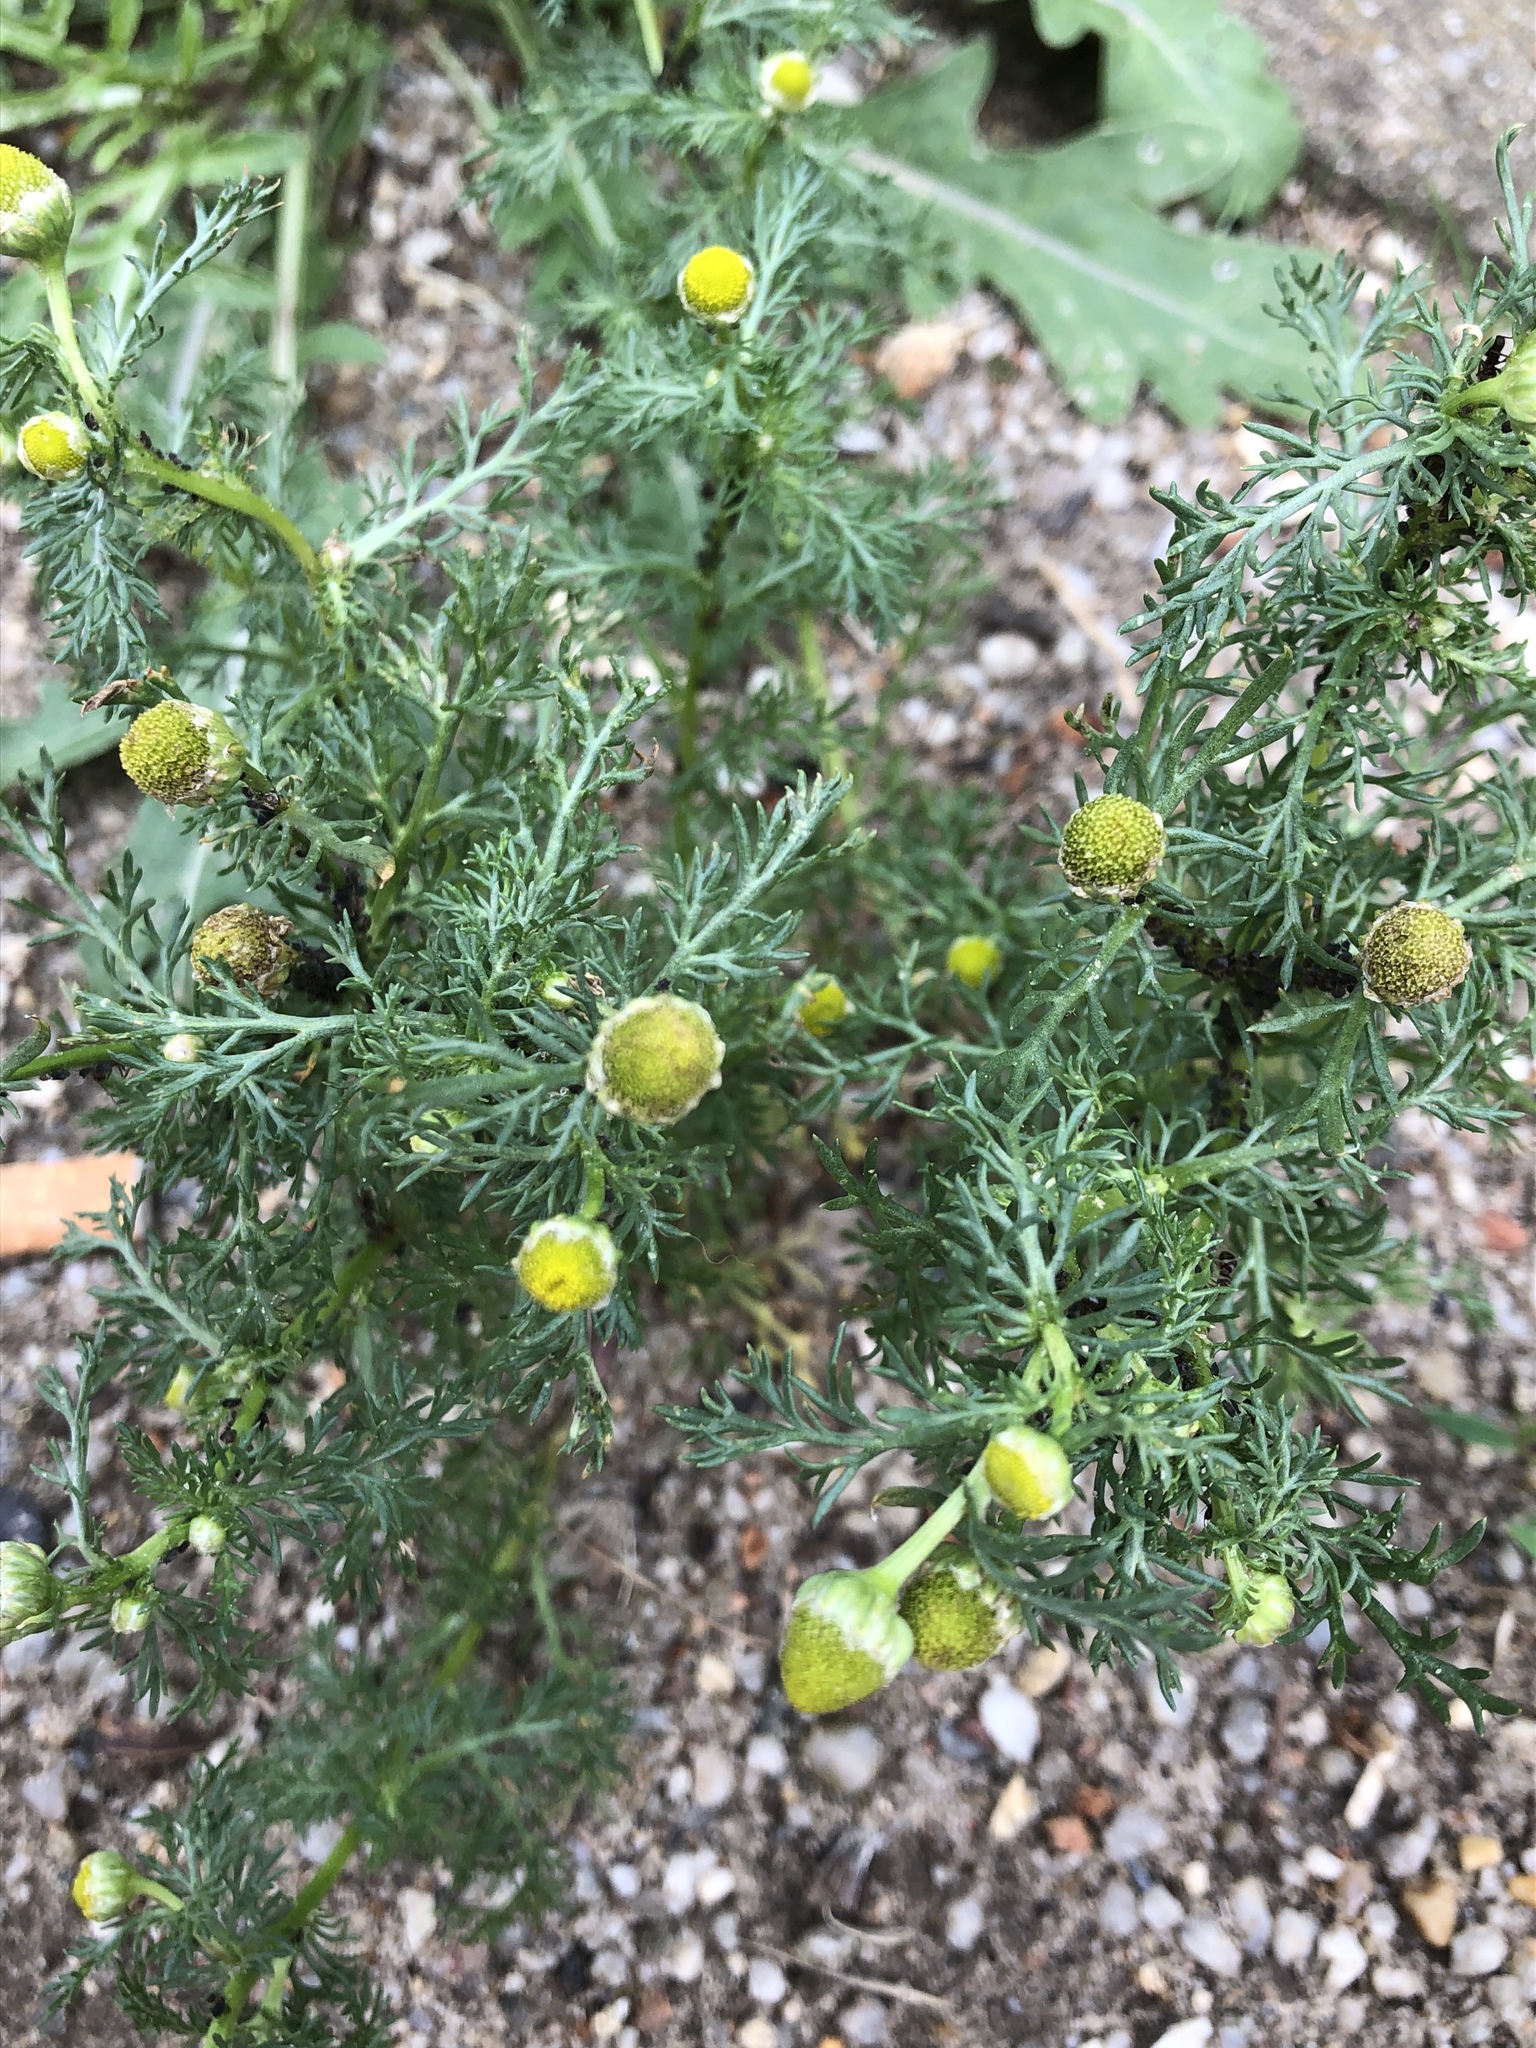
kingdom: Plantae
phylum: Tracheophyta
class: Magnoliopsida
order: Asterales
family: Asteraceae
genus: Matricaria
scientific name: Matricaria discoidea
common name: Disc mayweed
